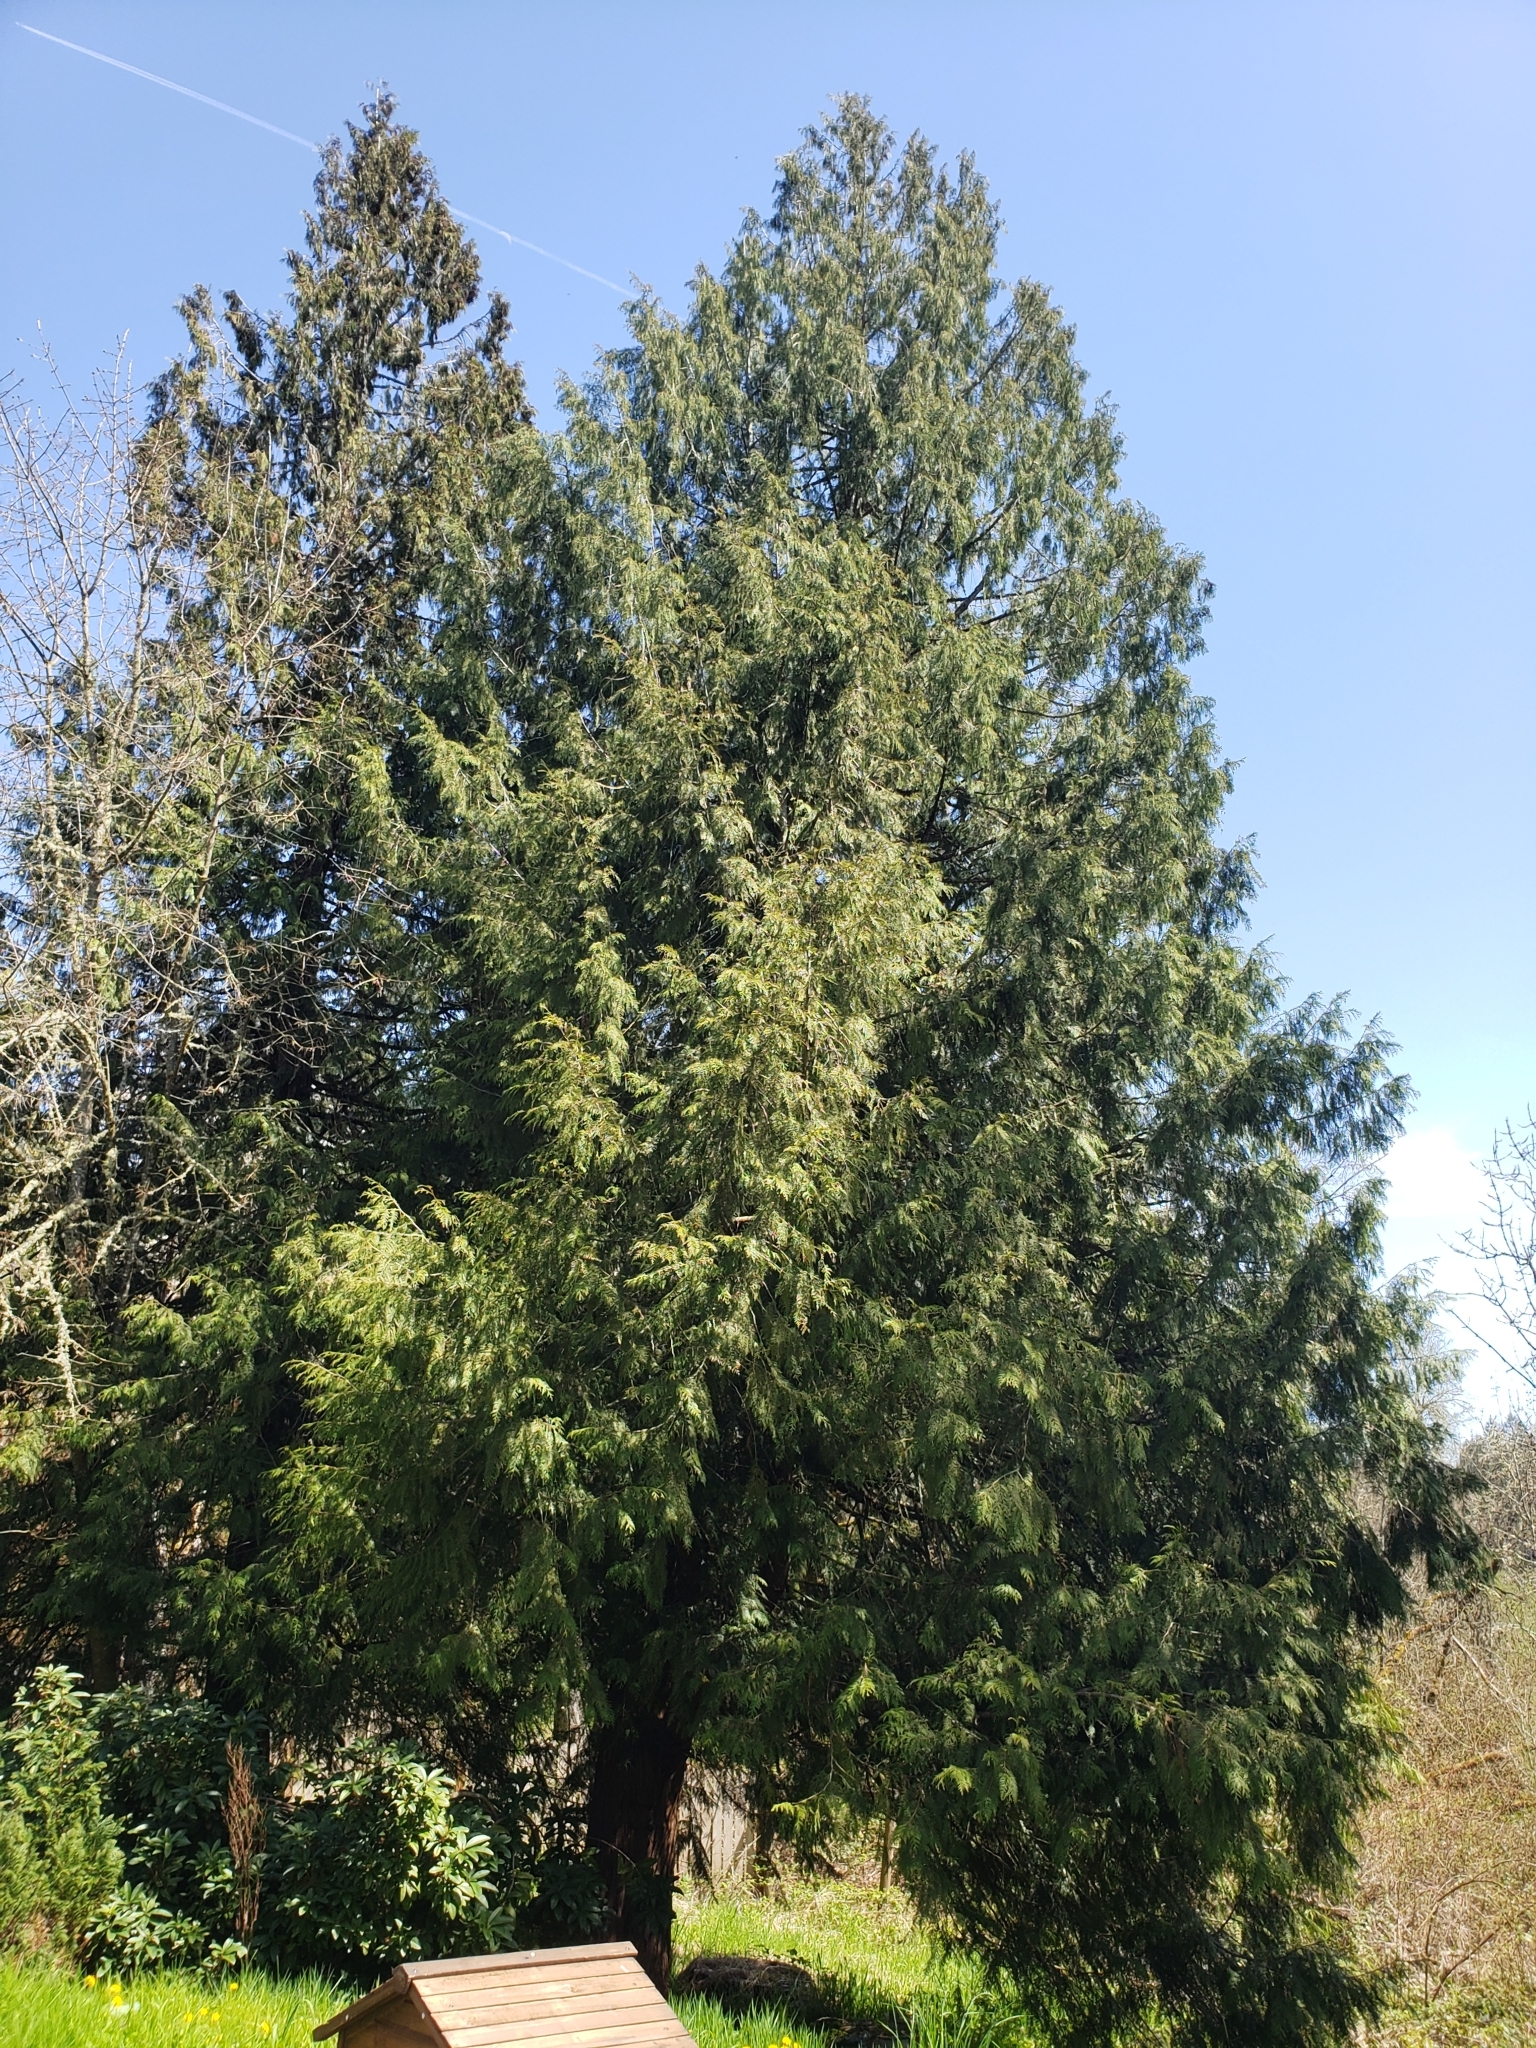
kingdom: Plantae
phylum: Tracheophyta
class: Pinopsida
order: Pinales
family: Cupressaceae
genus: Thuja
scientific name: Thuja plicata
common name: Western red-cedar
